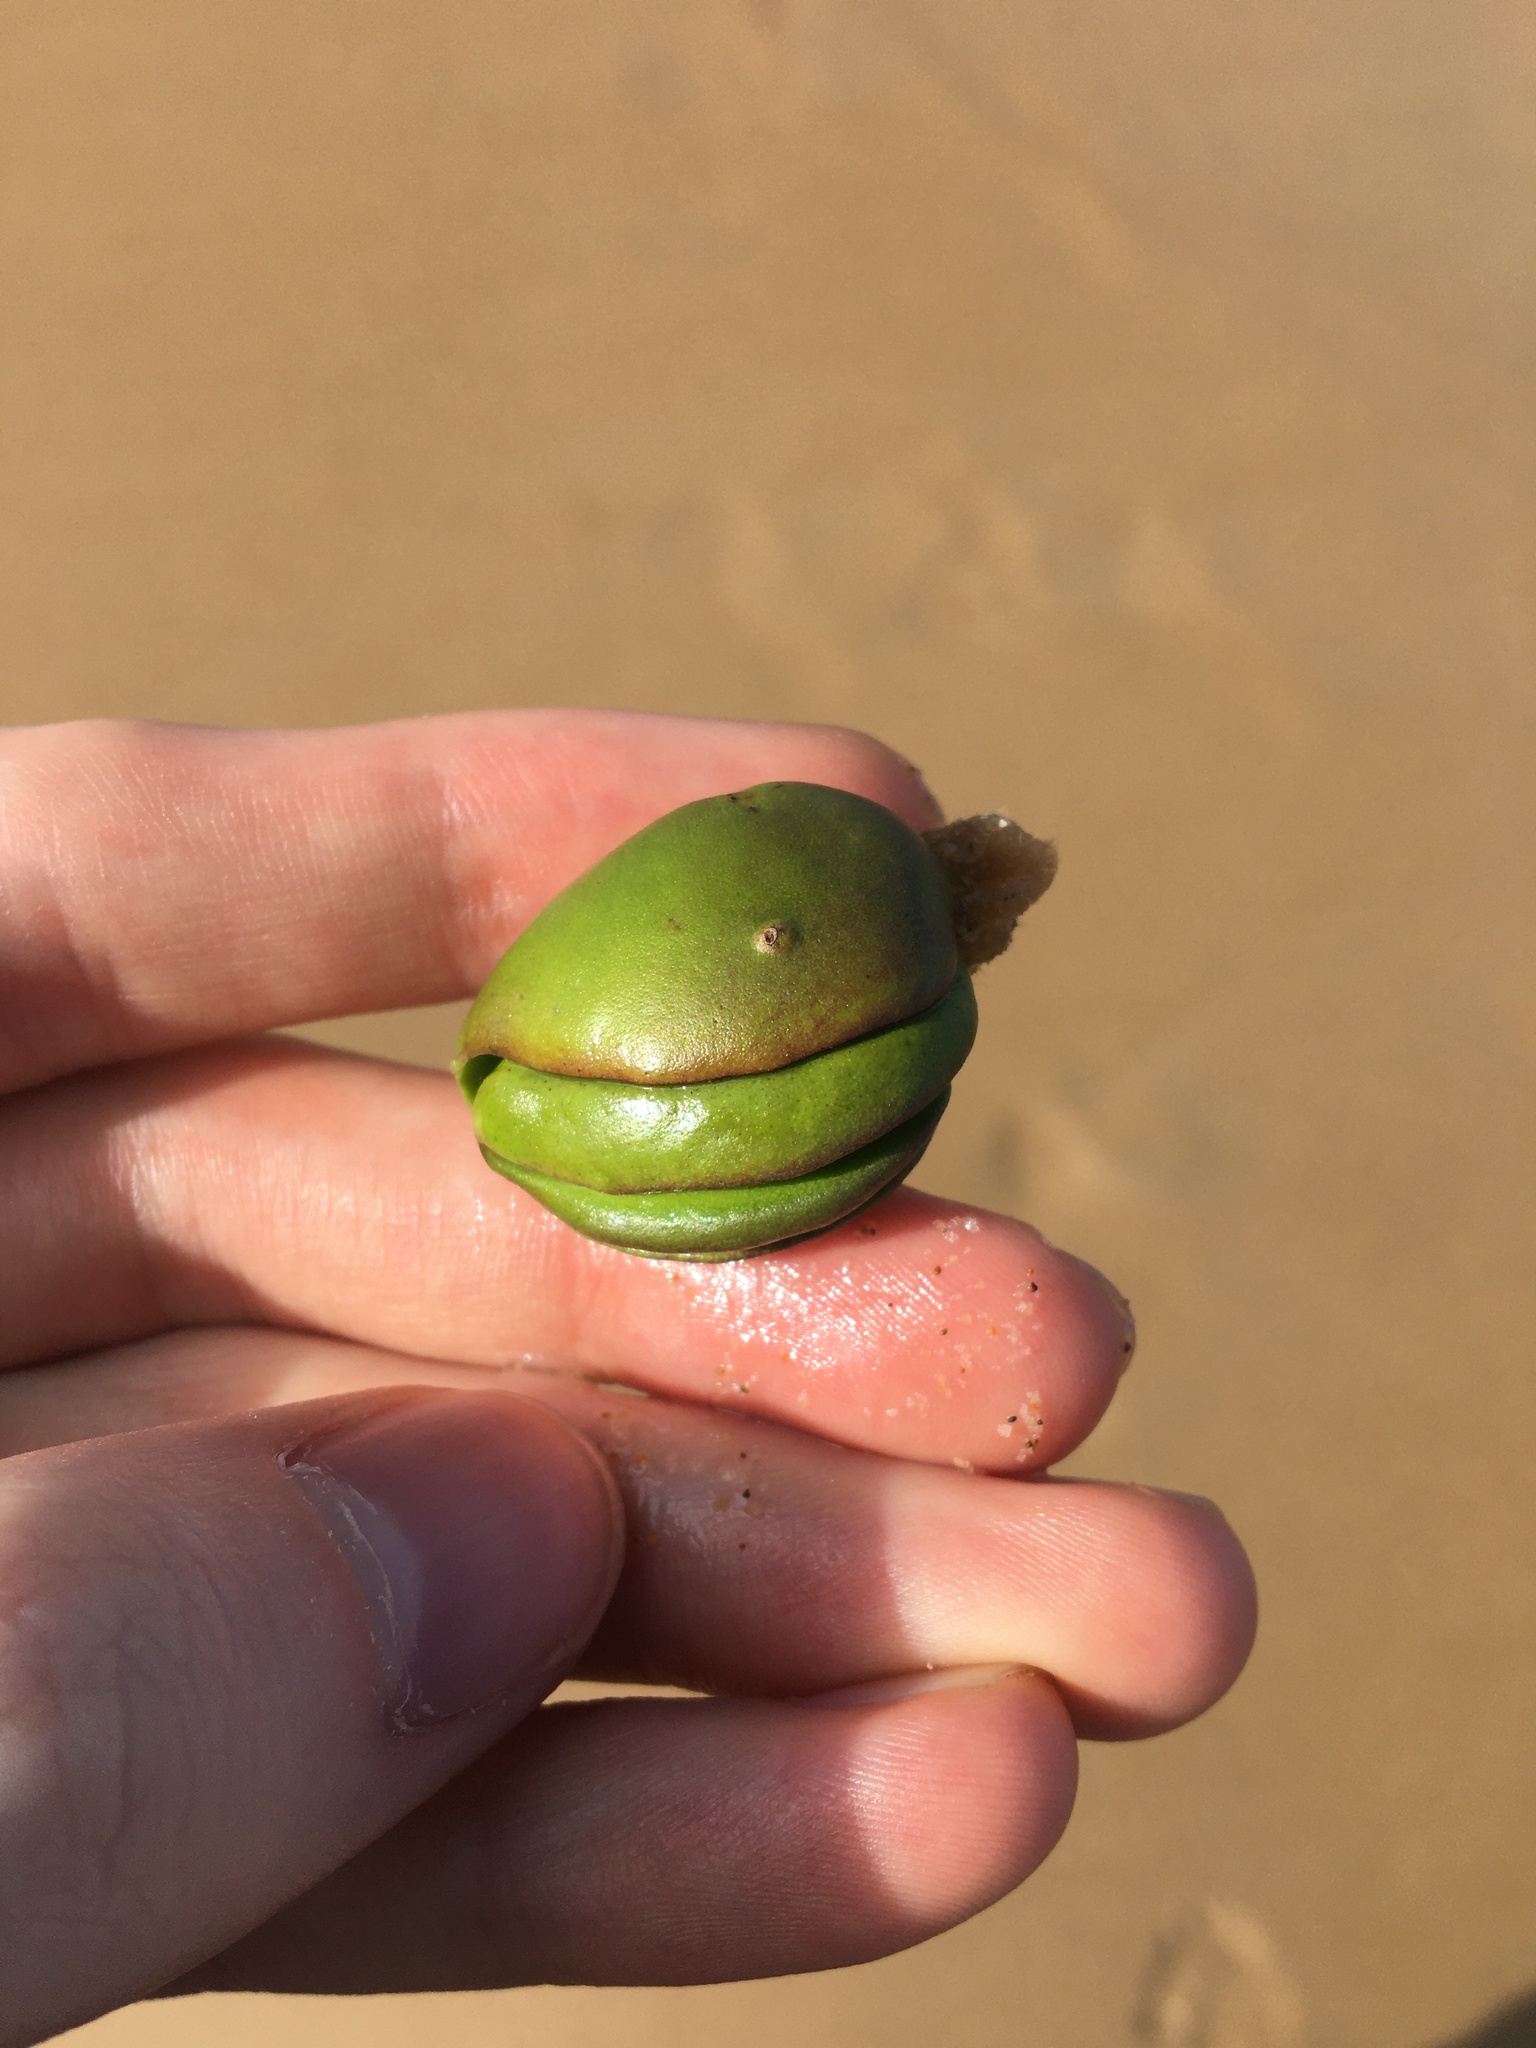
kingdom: Plantae
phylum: Tracheophyta
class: Magnoliopsida
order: Lamiales
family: Acanthaceae
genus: Avicennia
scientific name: Avicennia marina
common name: Gray mangrove
